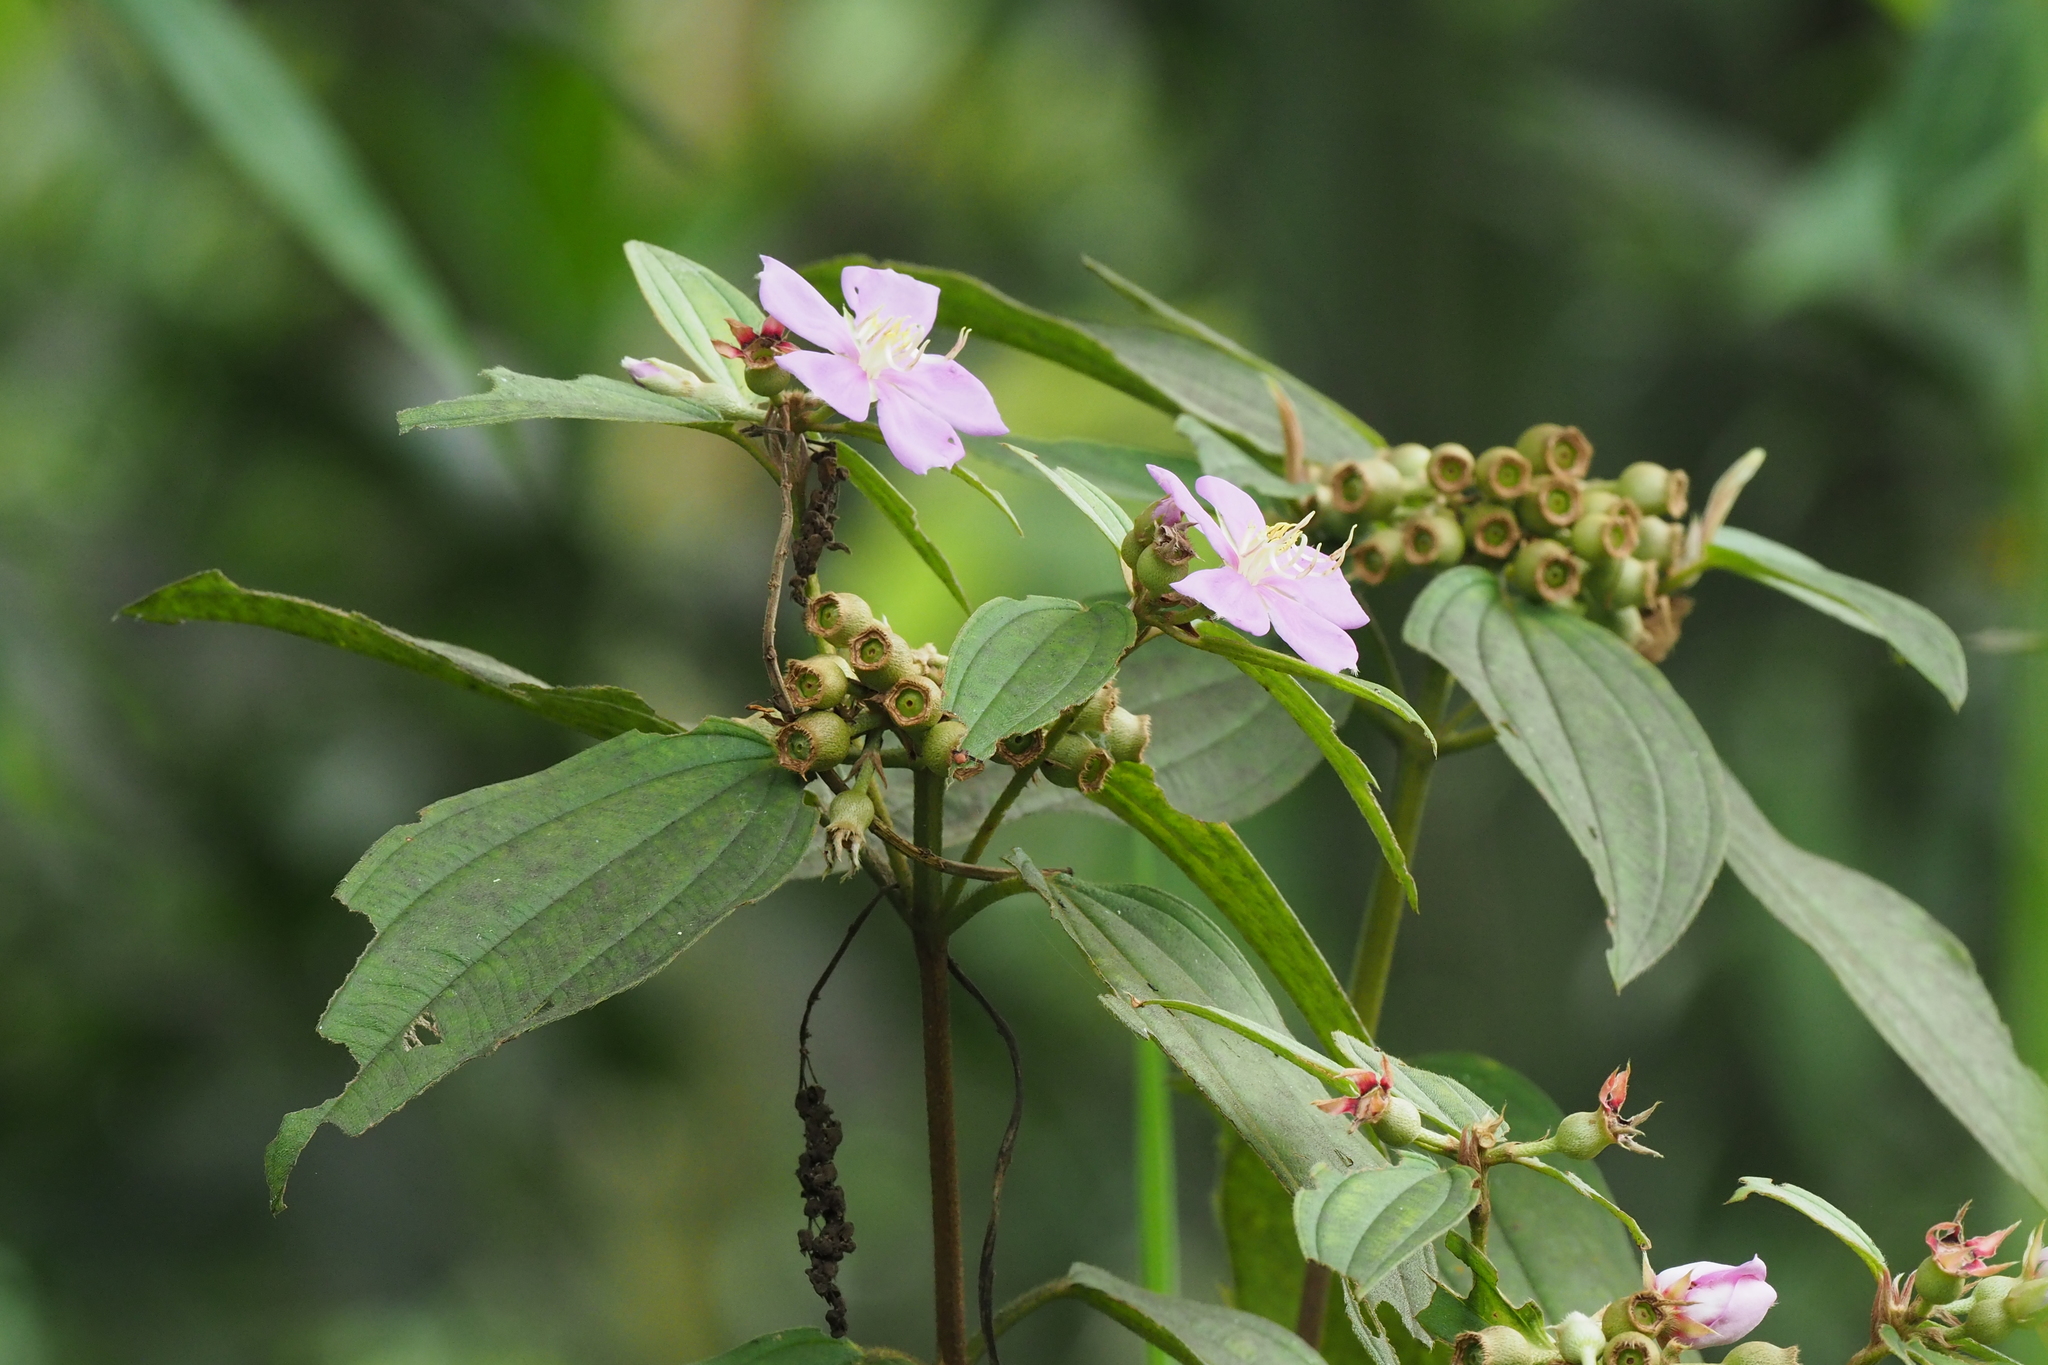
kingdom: Plantae
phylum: Tracheophyta
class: Magnoliopsida
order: Myrtales
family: Melastomataceae
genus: Melastoma
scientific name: Melastoma malabathricum
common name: Indian-rhododendron
